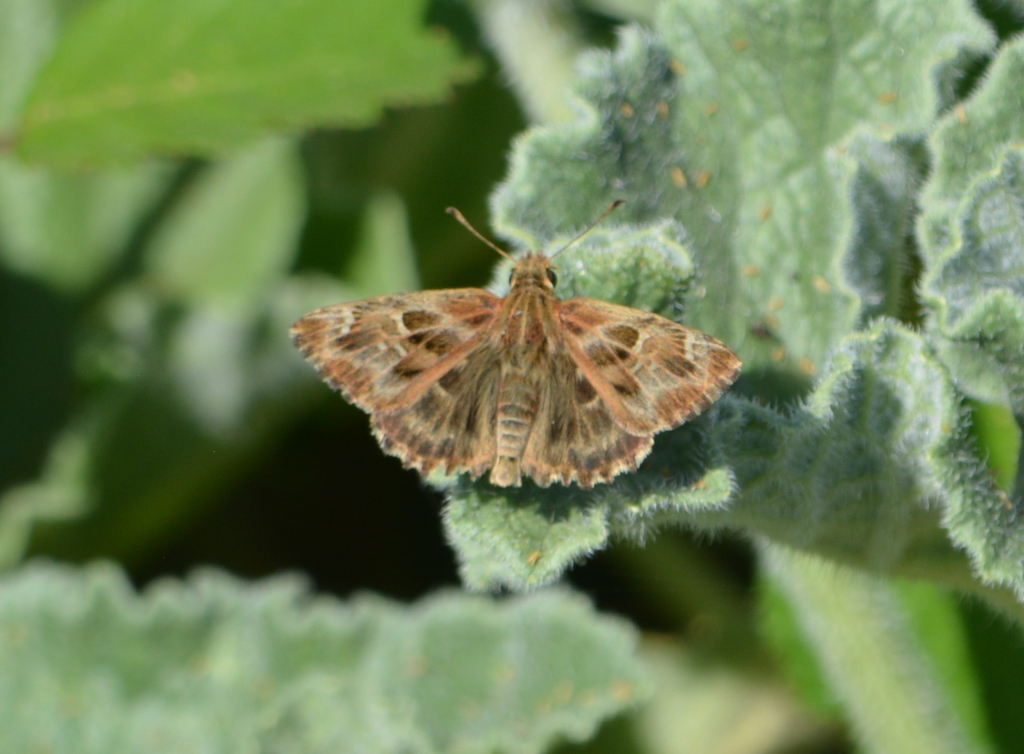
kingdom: Animalia
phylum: Arthropoda
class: Insecta
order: Lepidoptera
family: Hesperiidae
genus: Carcharodus
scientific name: Carcharodus alceae
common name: Mallow skipper
